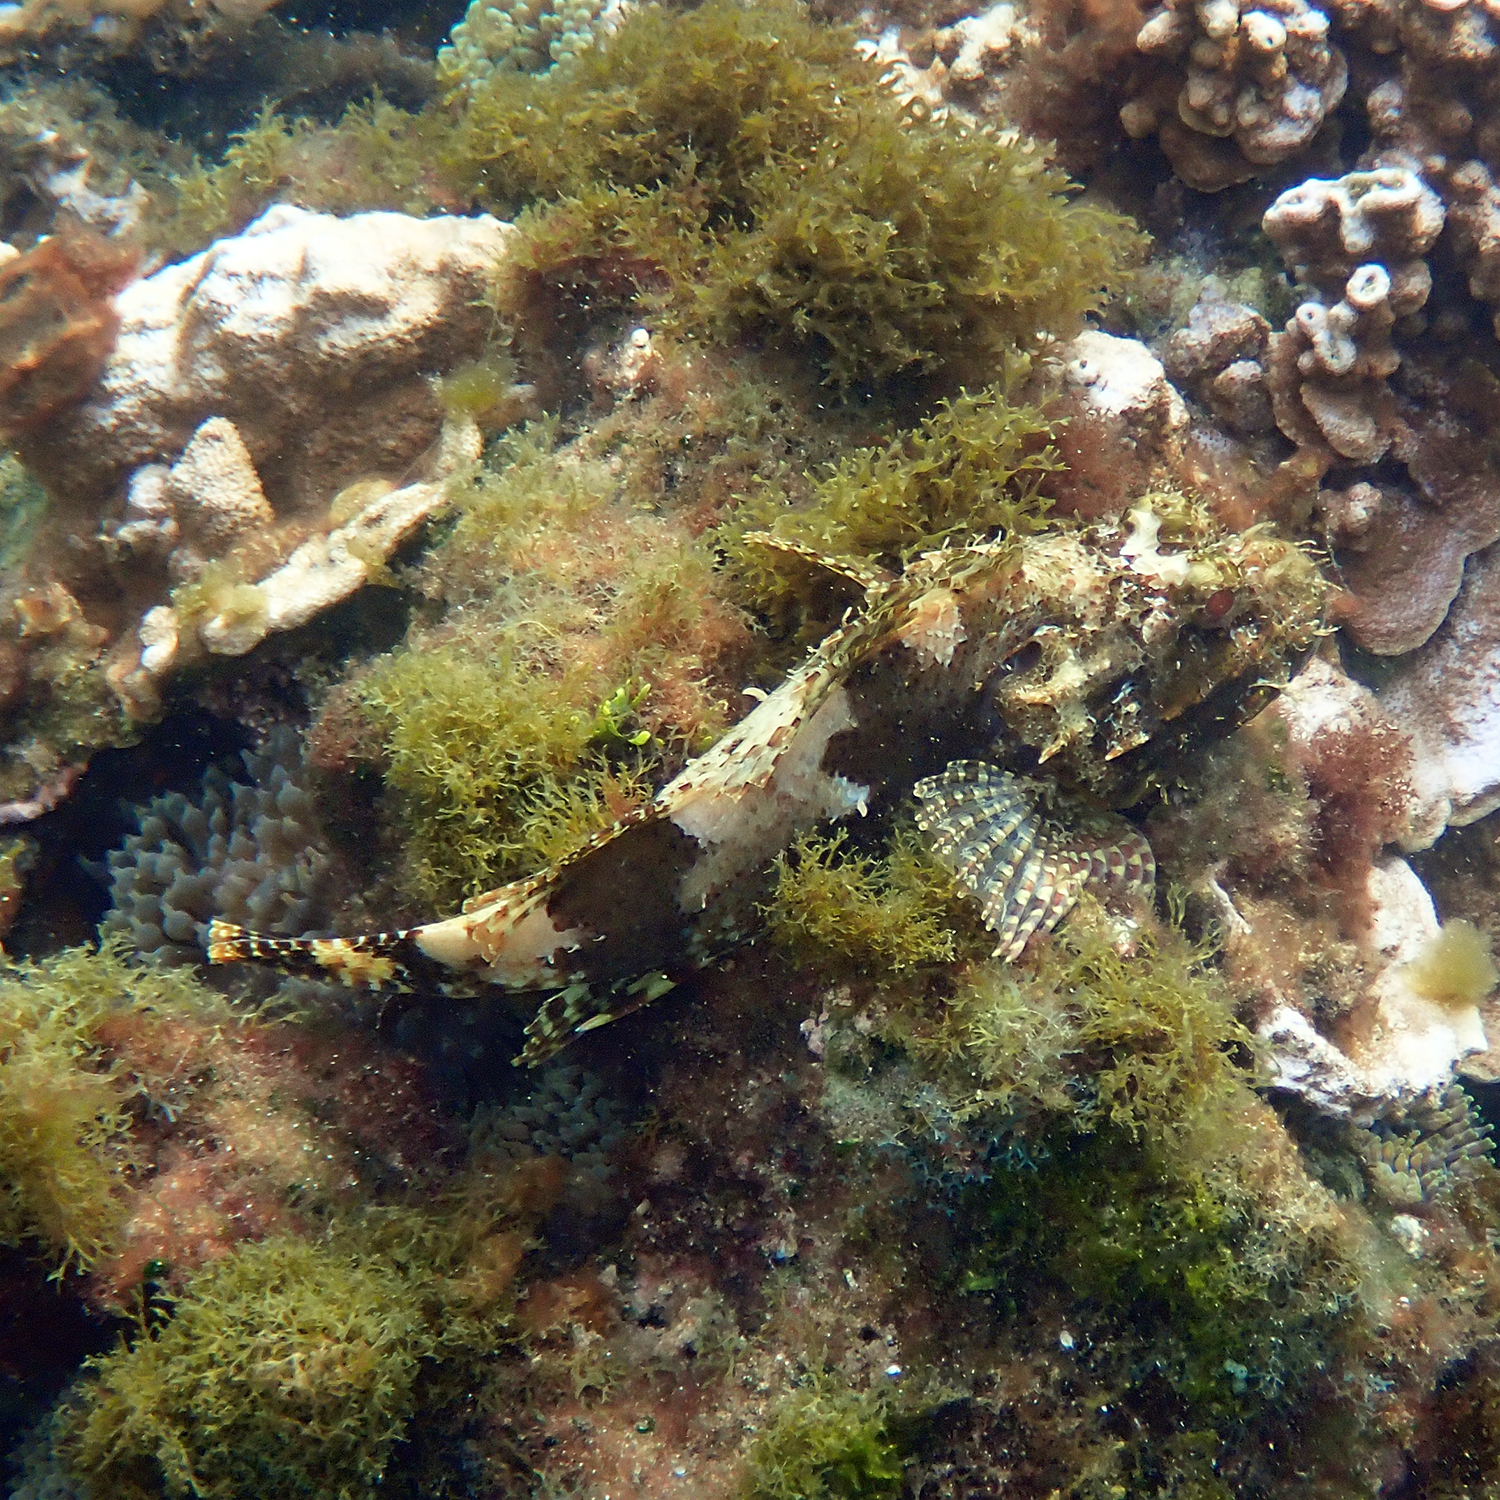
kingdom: Animalia
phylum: Chordata
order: Scorpaeniformes
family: Scorpaenidae
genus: Scorpaena
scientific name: Scorpaena cardinalis
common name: Cardinal scorpionfish
